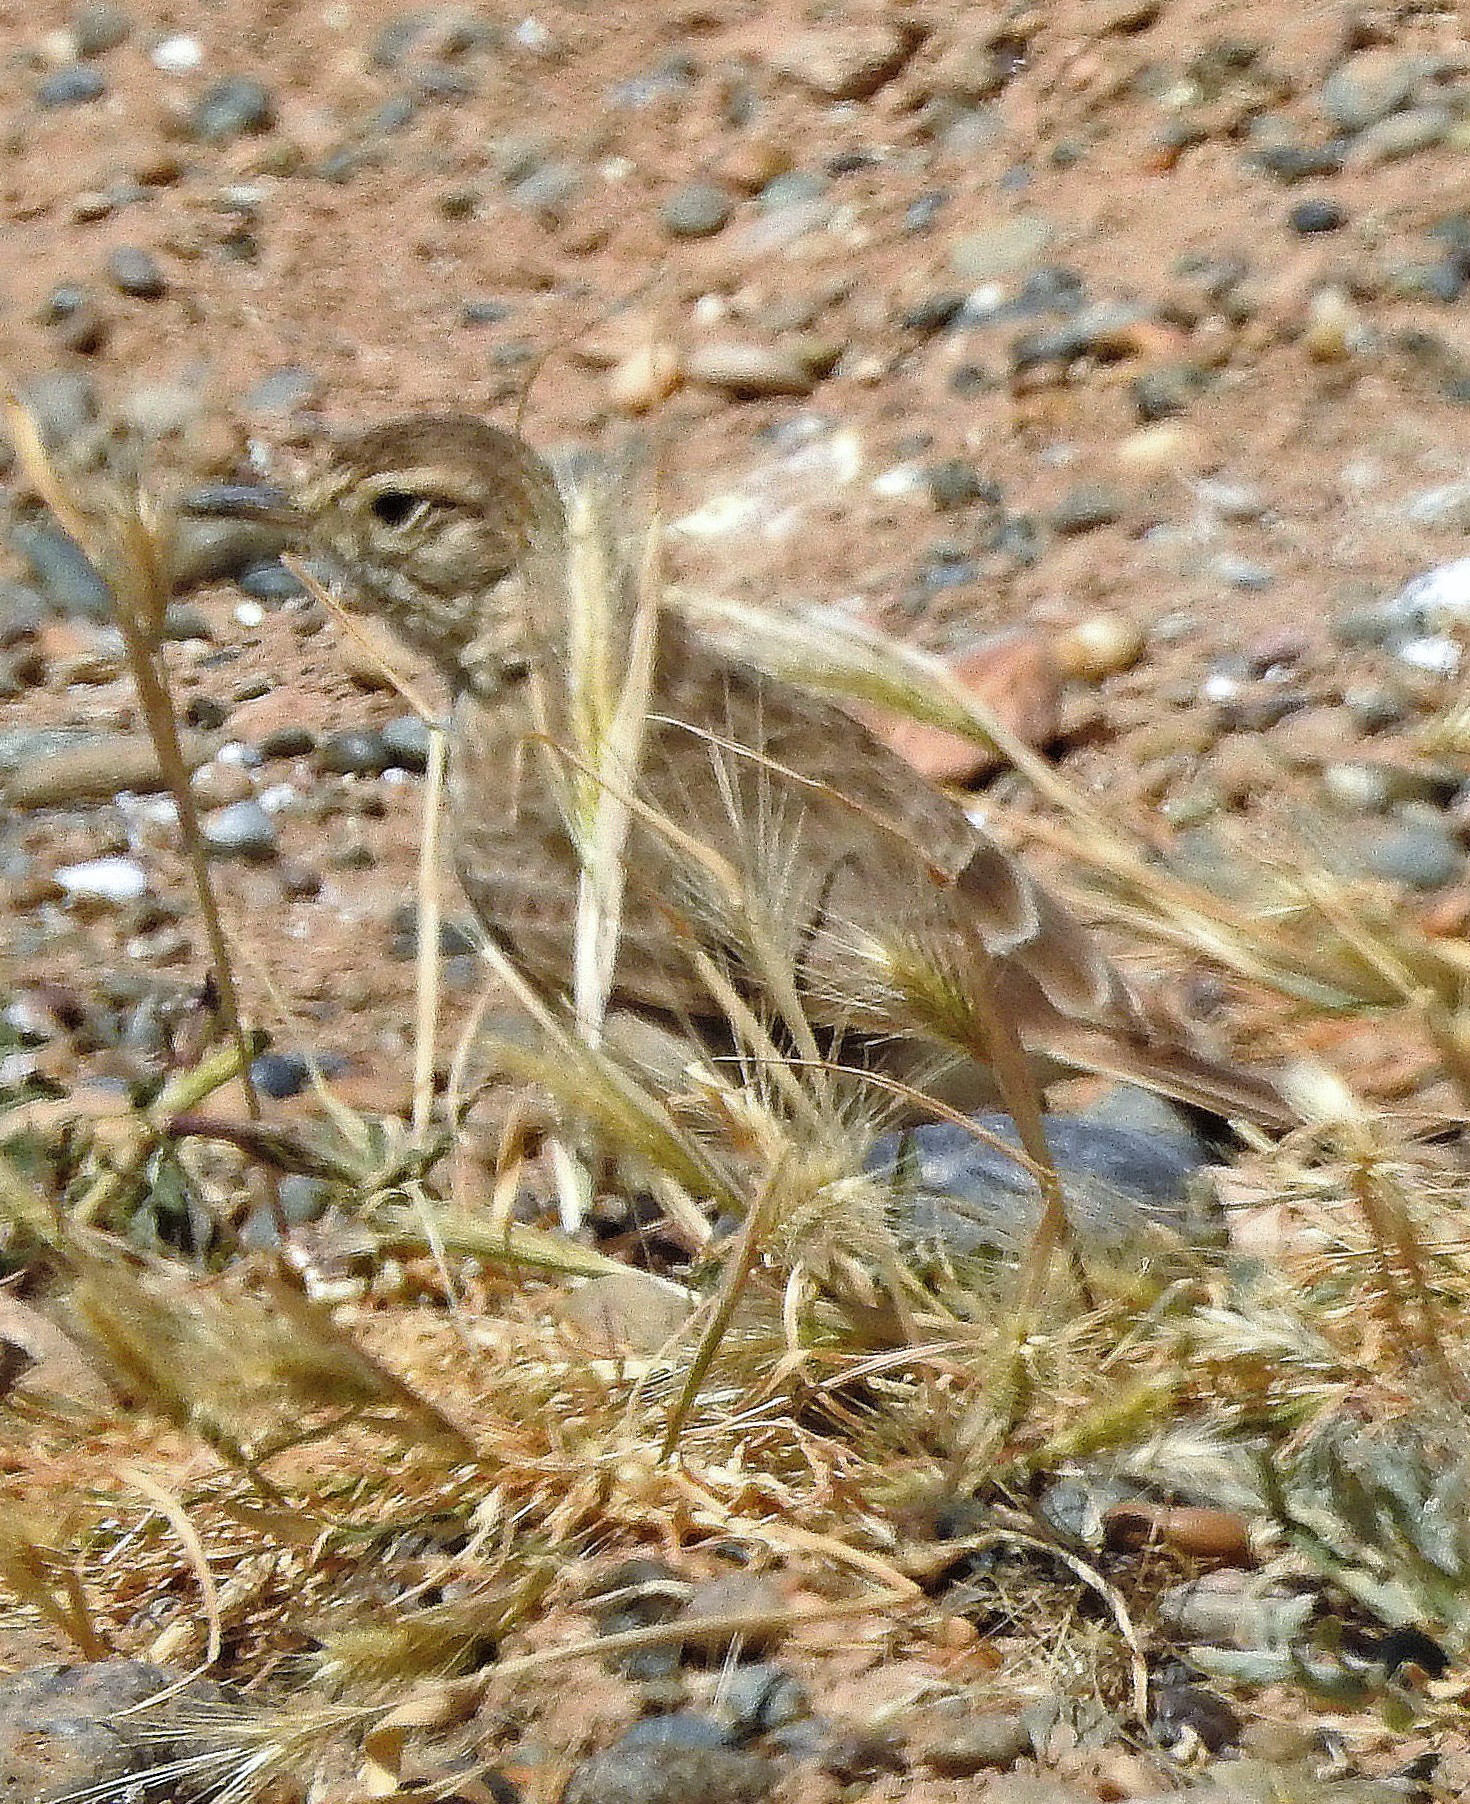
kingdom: Animalia
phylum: Chordata
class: Aves
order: Passeriformes
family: Furnariidae
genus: Geositta
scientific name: Geositta cunicularia
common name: Common miner
